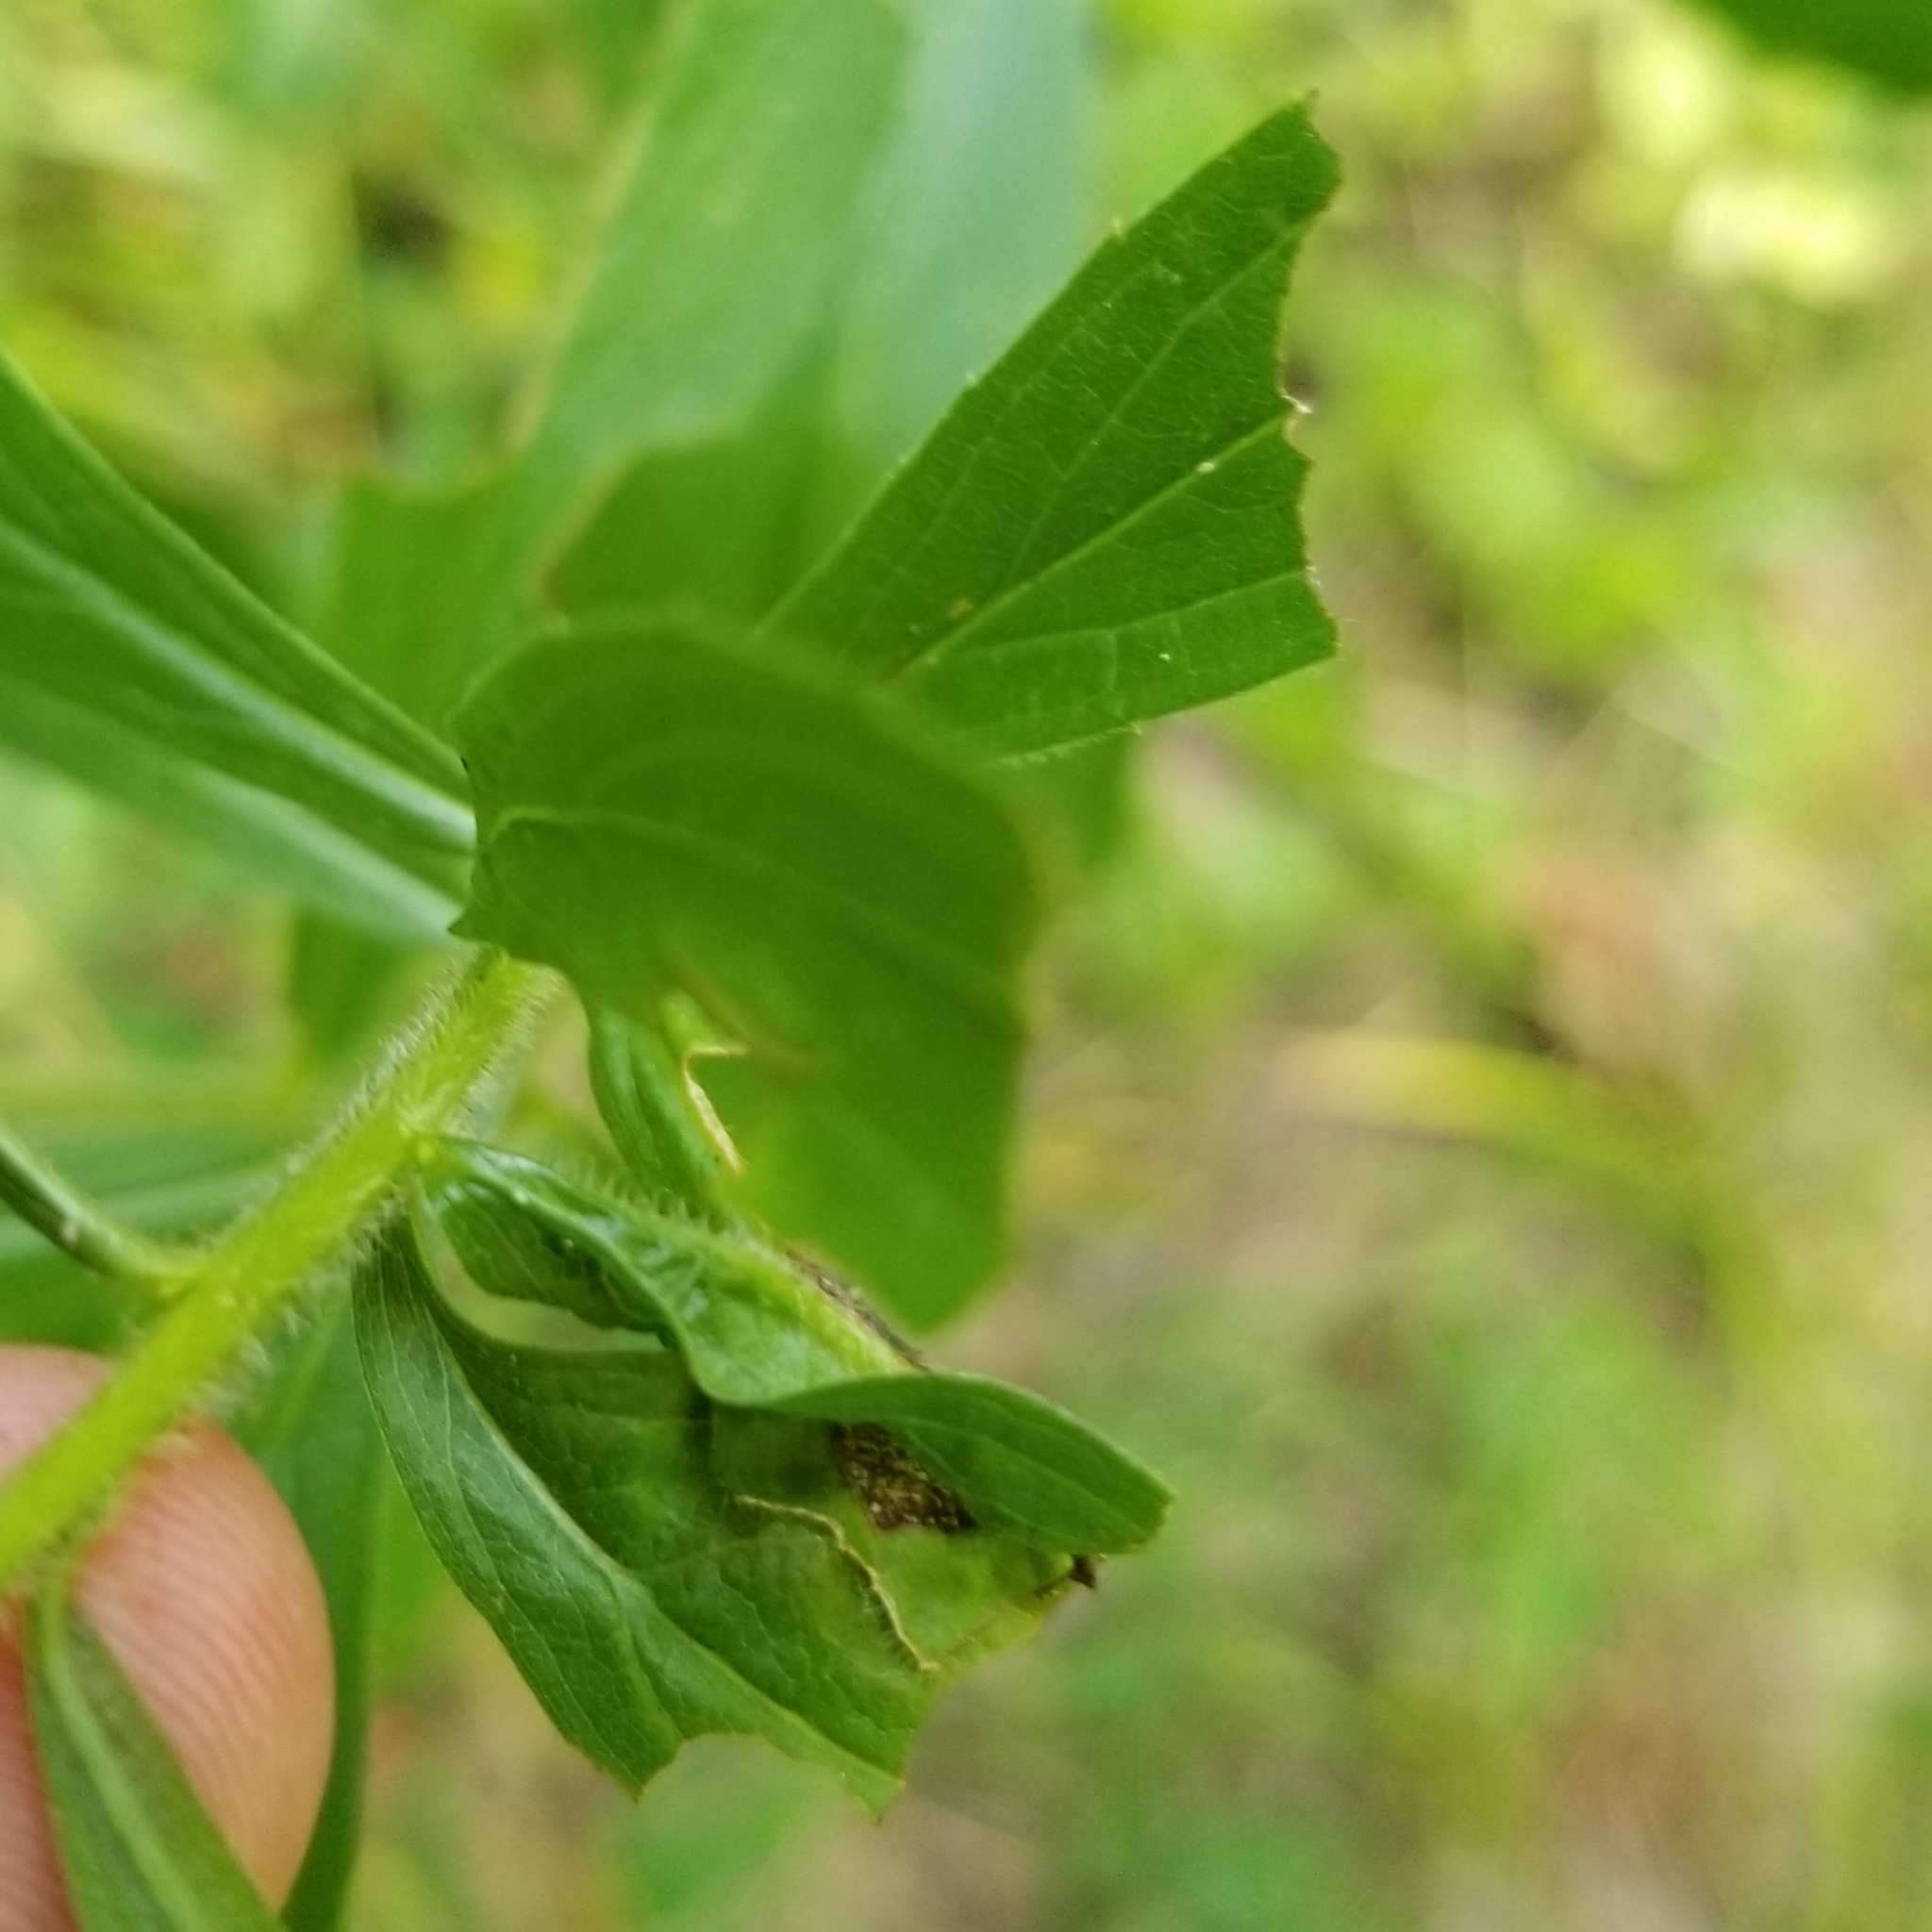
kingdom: Plantae
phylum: Tracheophyta
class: Magnoliopsida
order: Asterales
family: Asteraceae
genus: Solidago
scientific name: Solidago rugosa
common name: Rough-stemmed goldenrod
